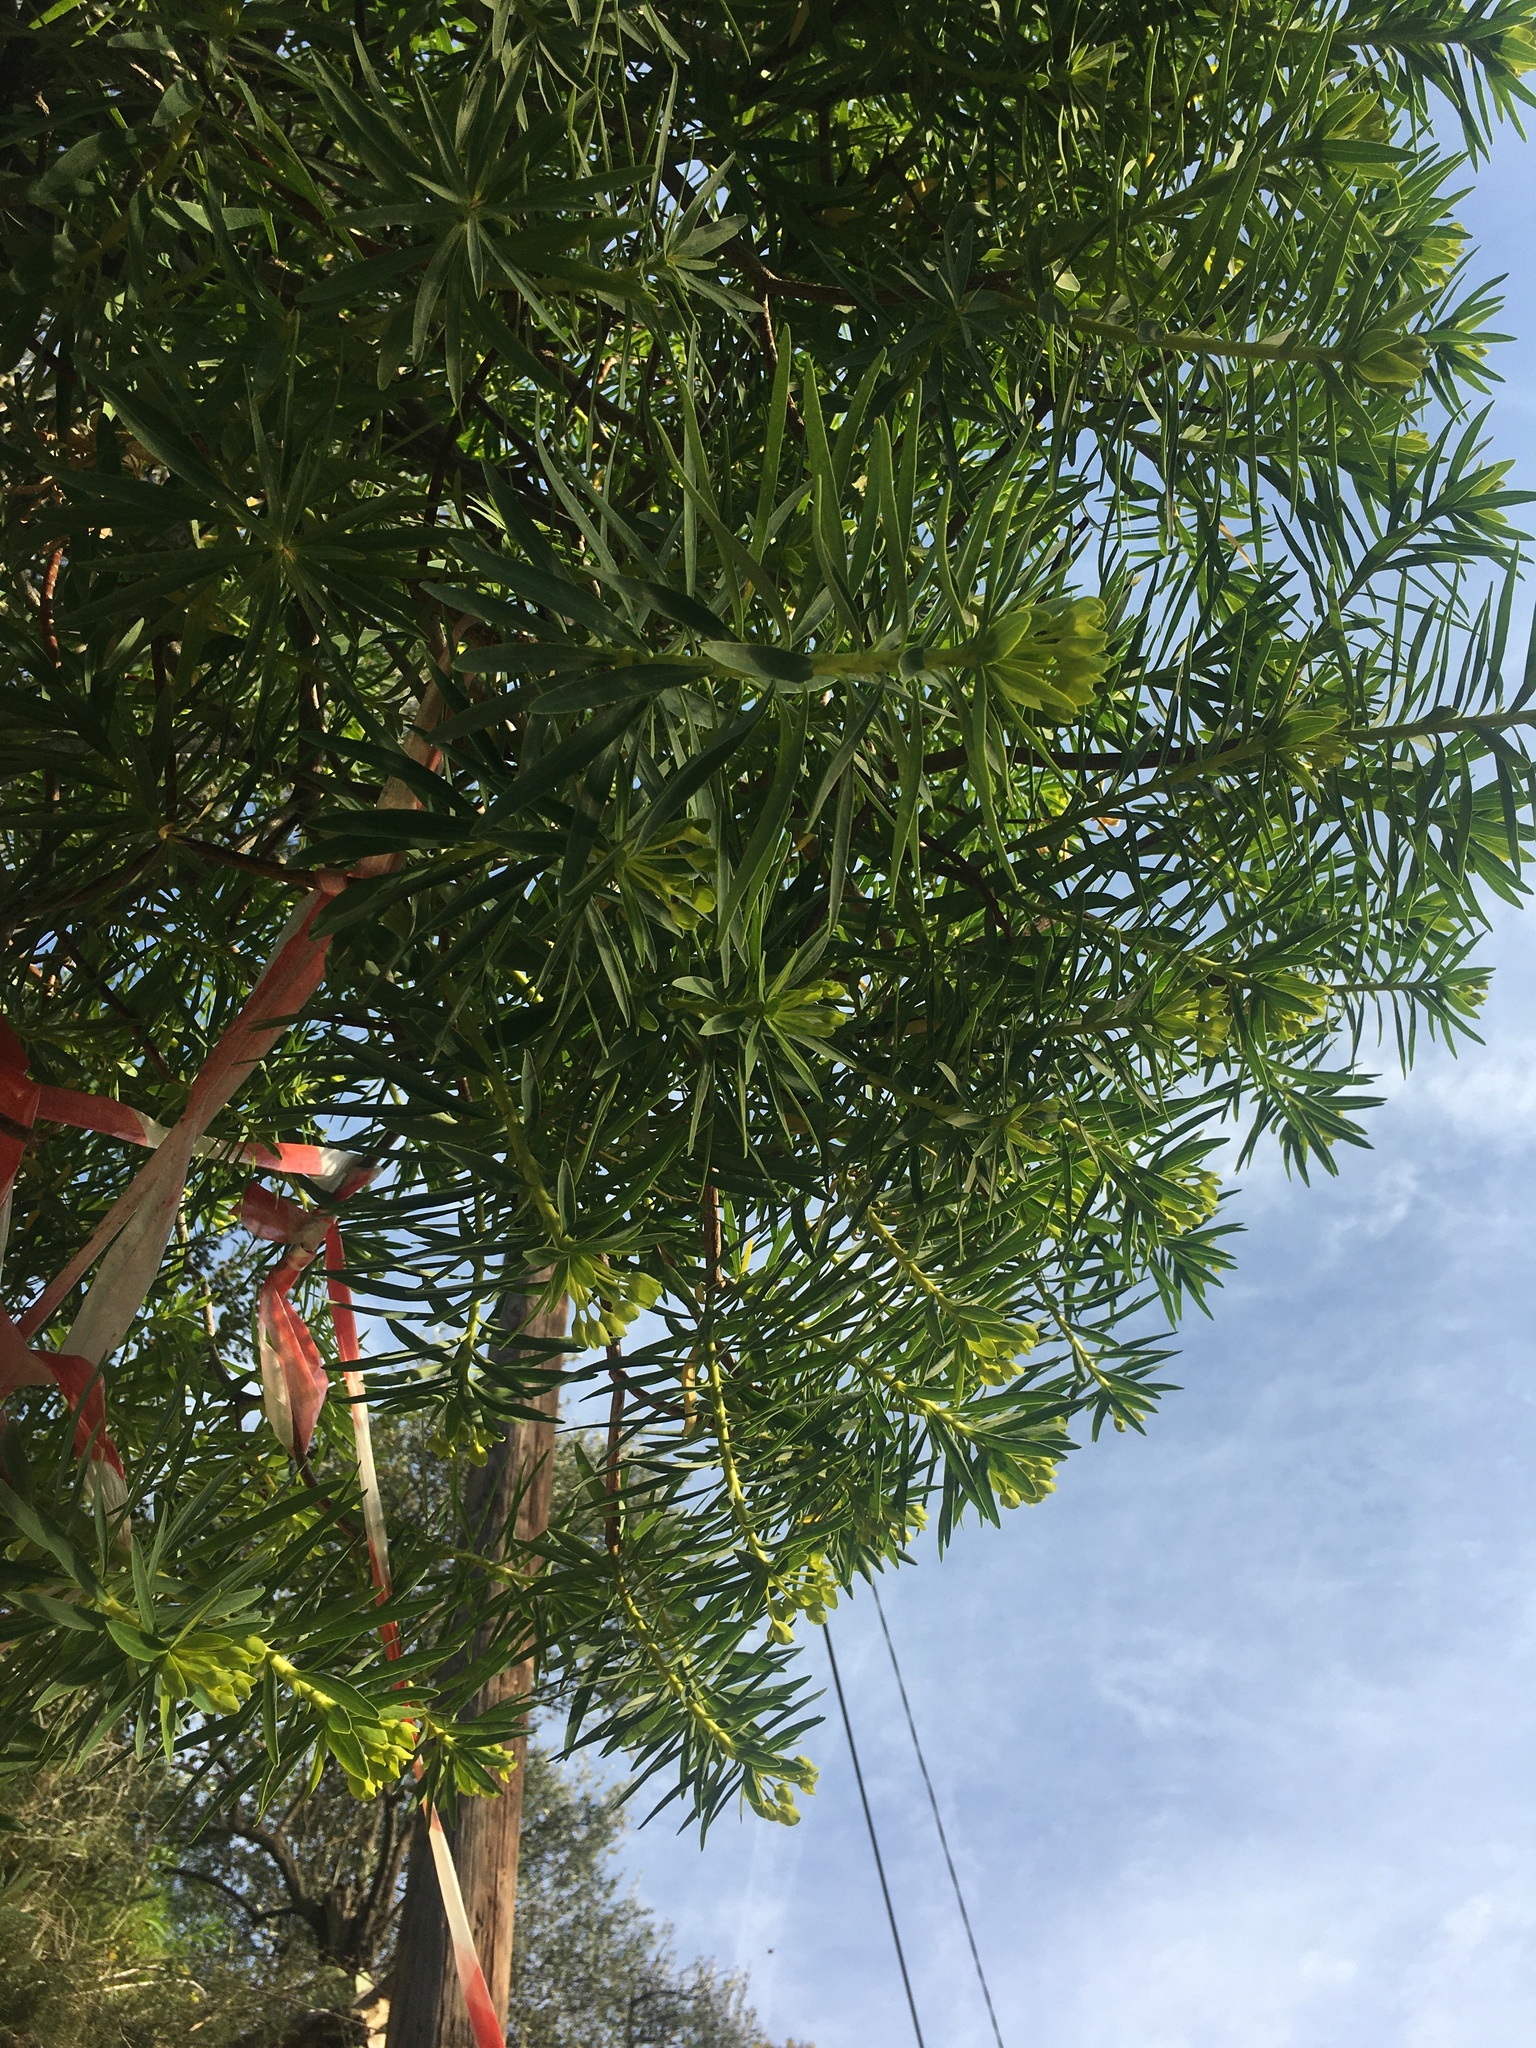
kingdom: Plantae
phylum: Tracheophyta
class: Magnoliopsida
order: Malpighiales
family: Euphorbiaceae
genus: Euphorbia
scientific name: Euphorbia dendroides
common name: Tree spurge
